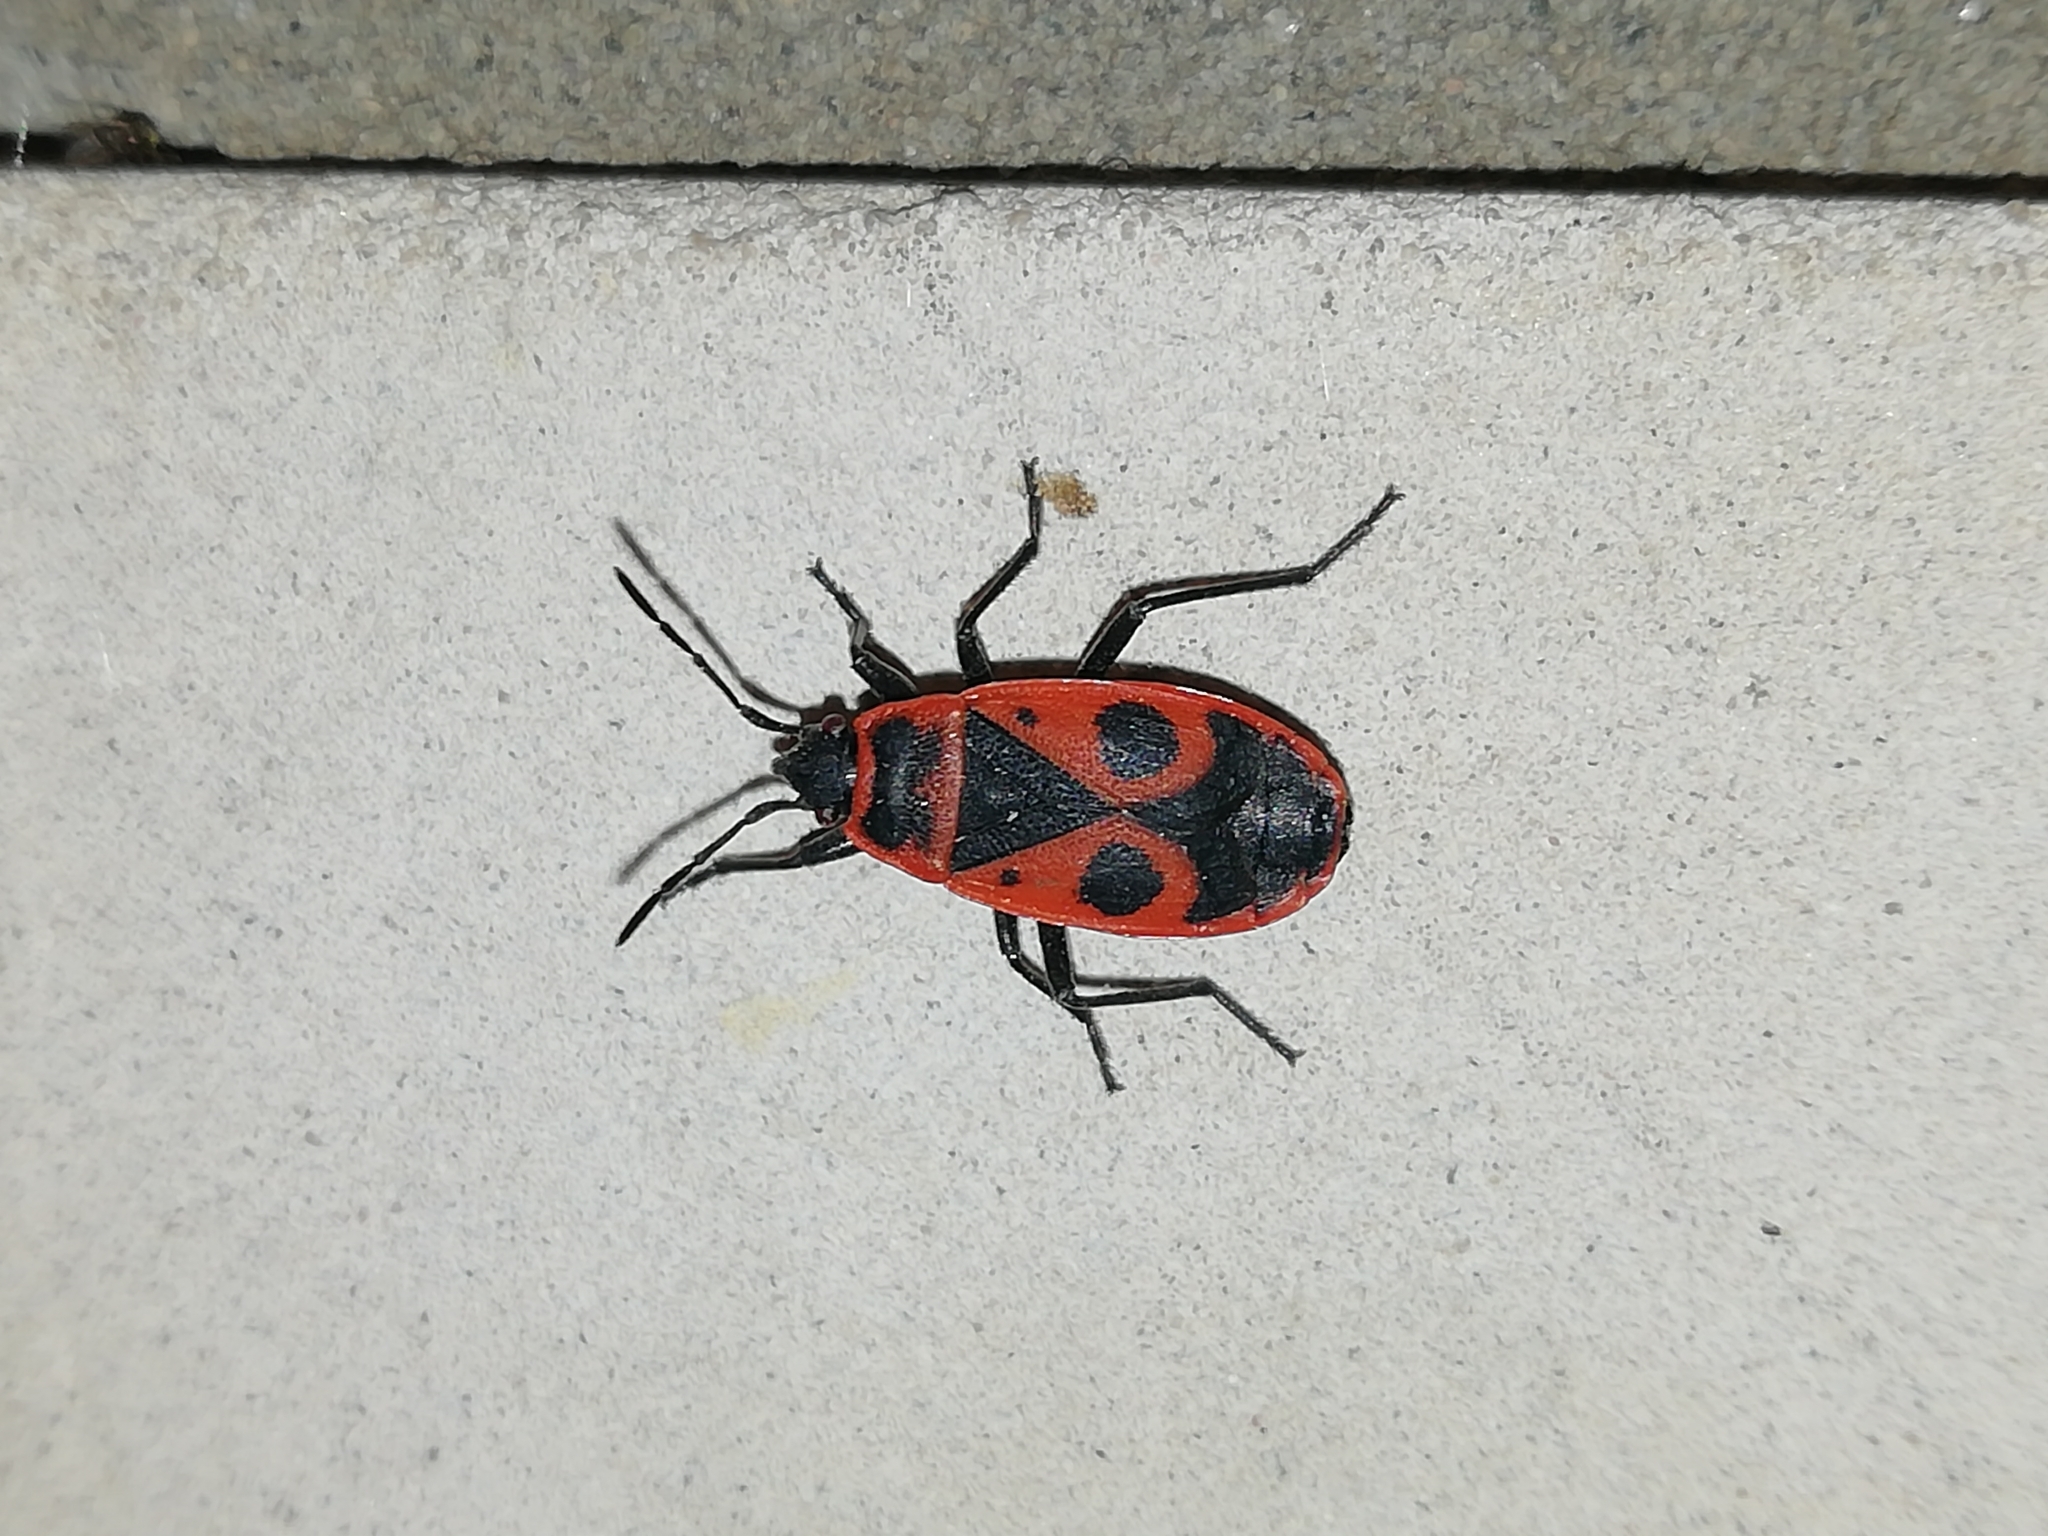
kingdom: Animalia
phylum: Arthropoda
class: Insecta
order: Hemiptera
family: Pyrrhocoridae
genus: Pyrrhocoris
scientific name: Pyrrhocoris apterus
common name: Firebug
